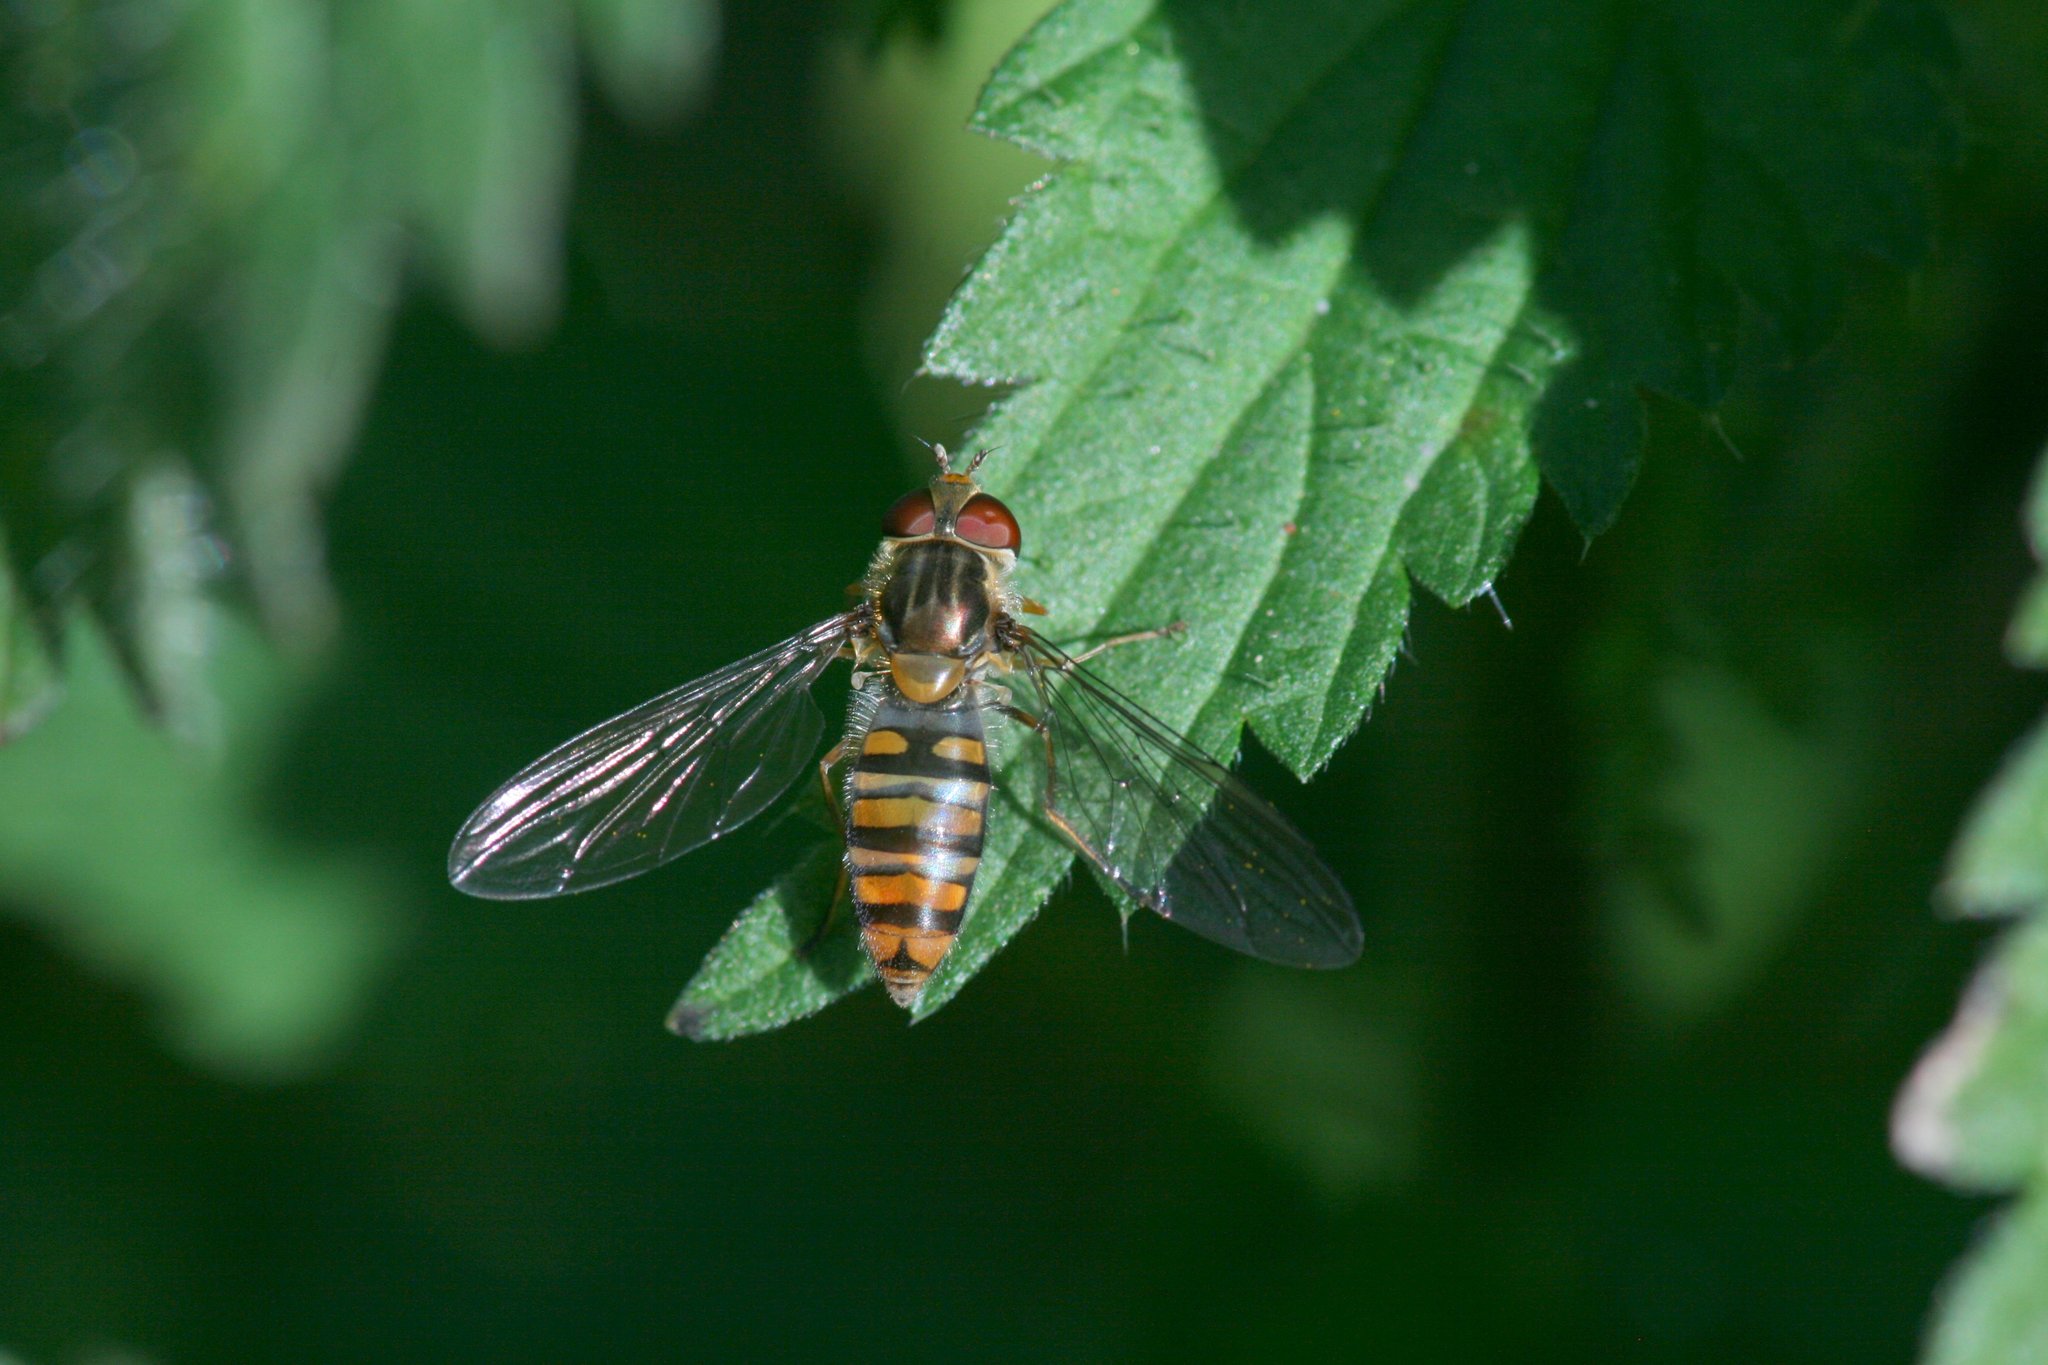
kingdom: Animalia
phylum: Arthropoda
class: Insecta
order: Diptera
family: Syrphidae
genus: Episyrphus
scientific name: Episyrphus balteatus
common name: Marmalade hoverfly
